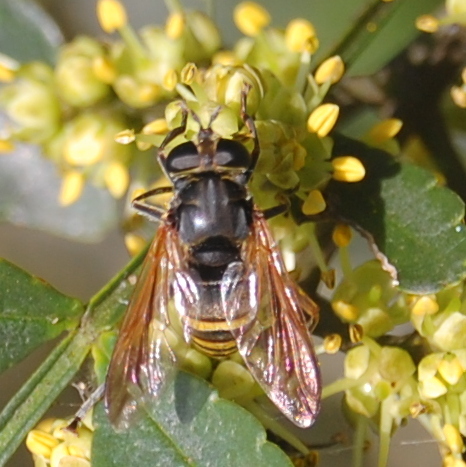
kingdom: Animalia
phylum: Arthropoda
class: Insecta
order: Diptera
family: Syrphidae
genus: Meromacrus
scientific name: Meromacrus nectarinoides
